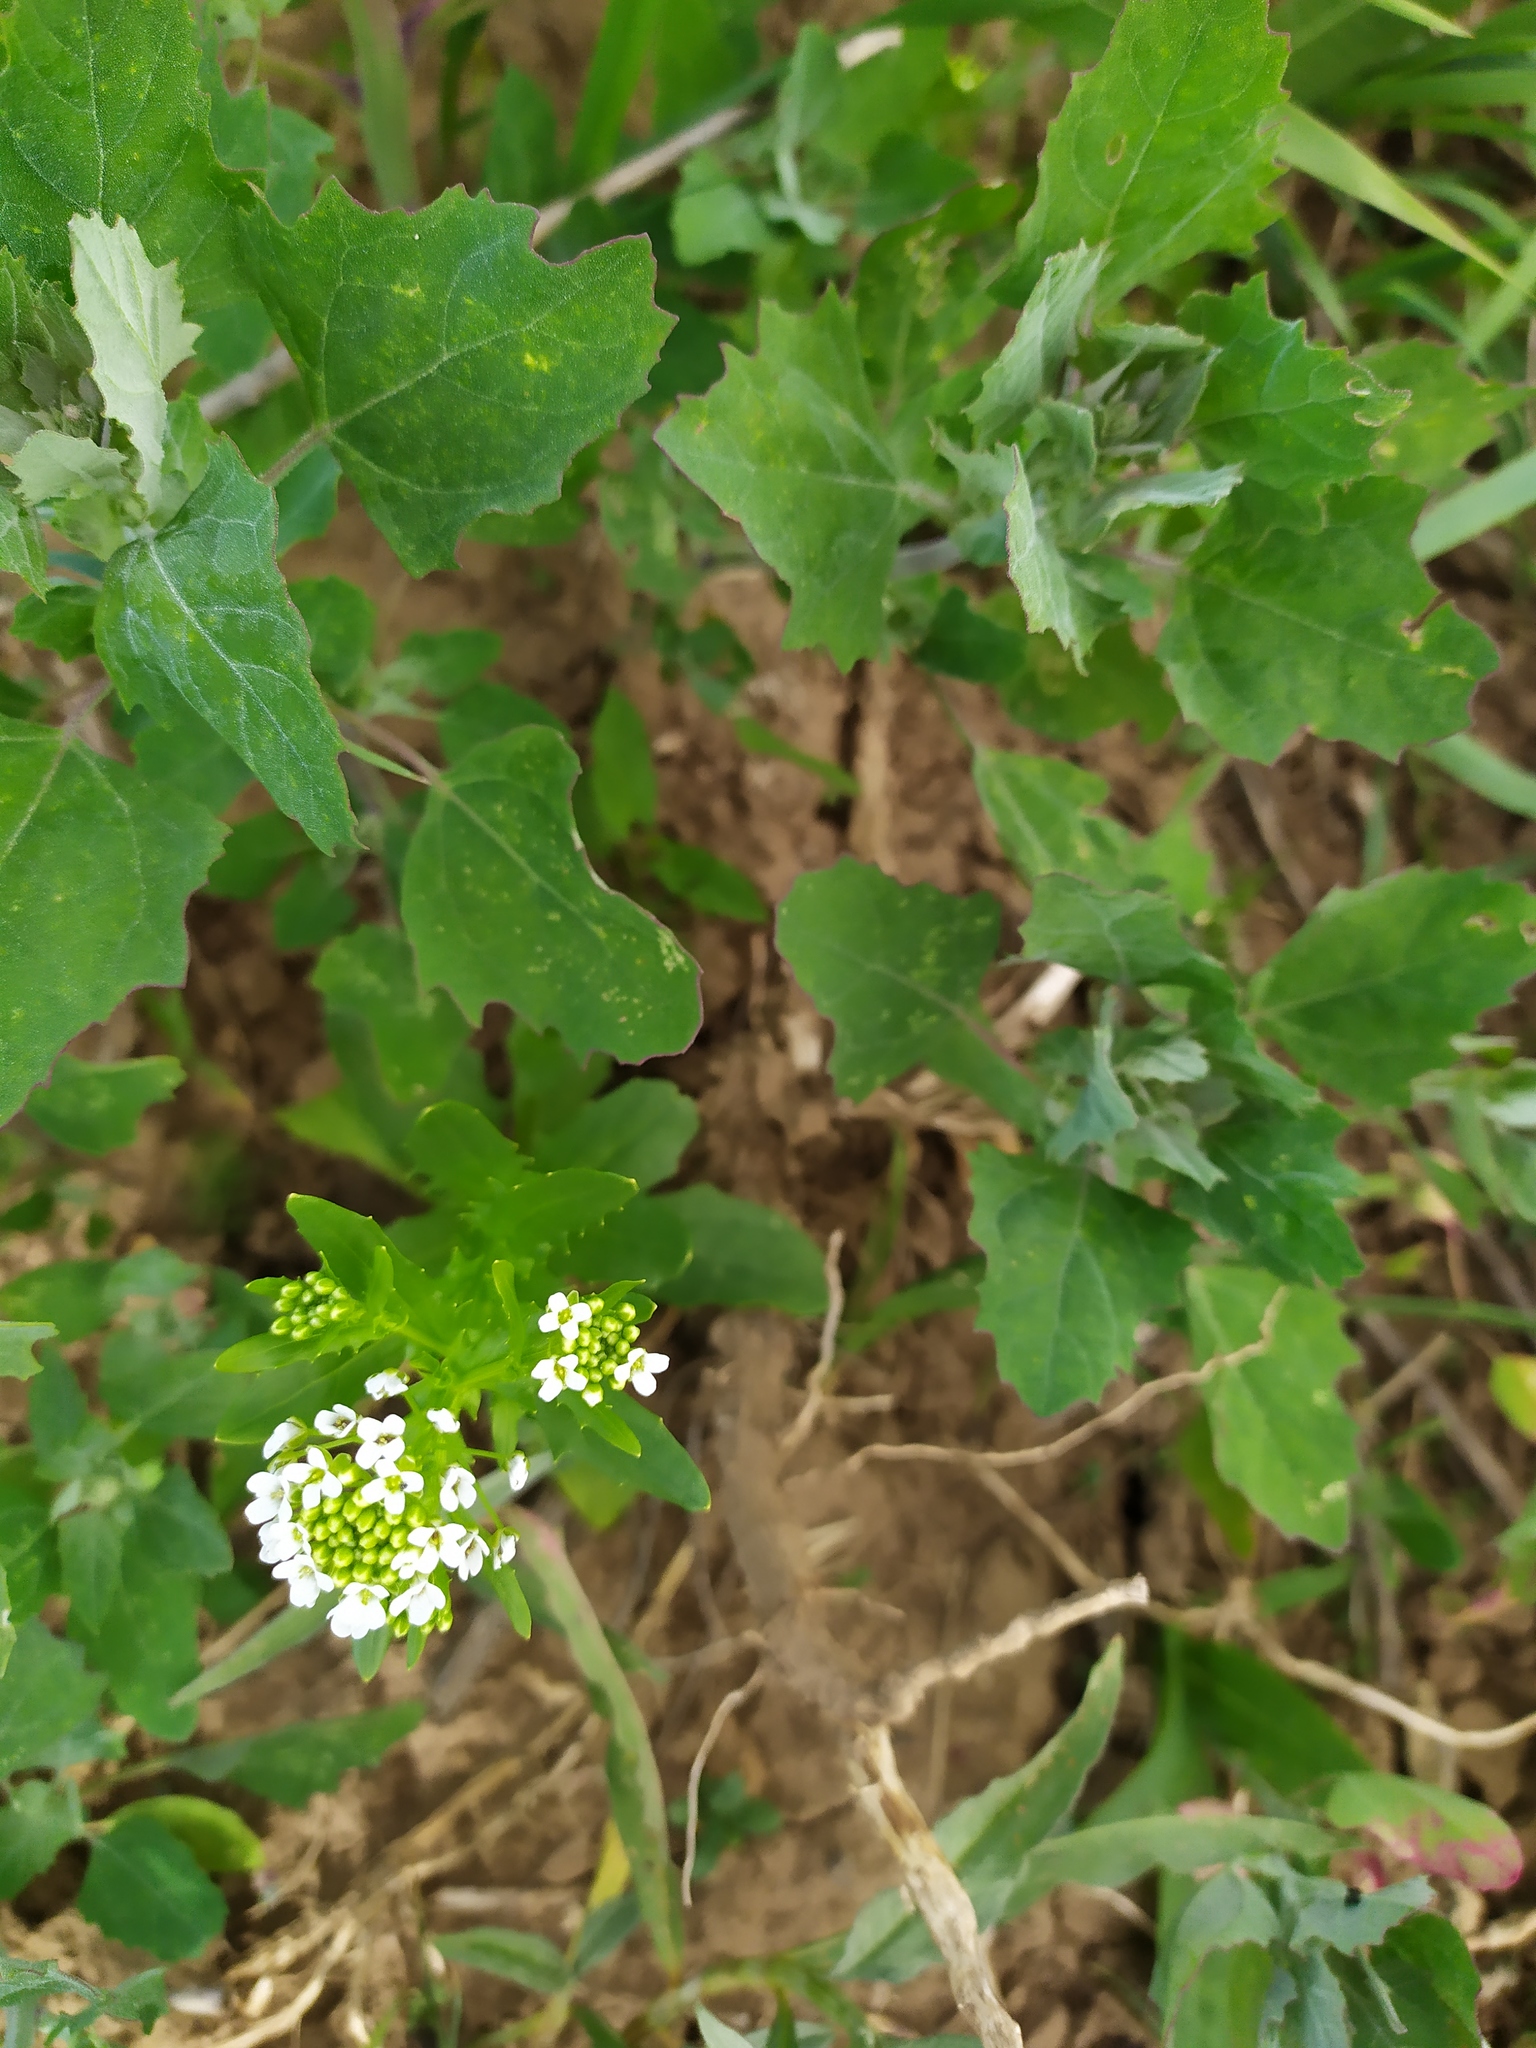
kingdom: Plantae
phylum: Tracheophyta
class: Magnoliopsida
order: Brassicales
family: Brassicaceae
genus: Thlaspi
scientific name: Thlaspi arvense
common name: Field pennycress
